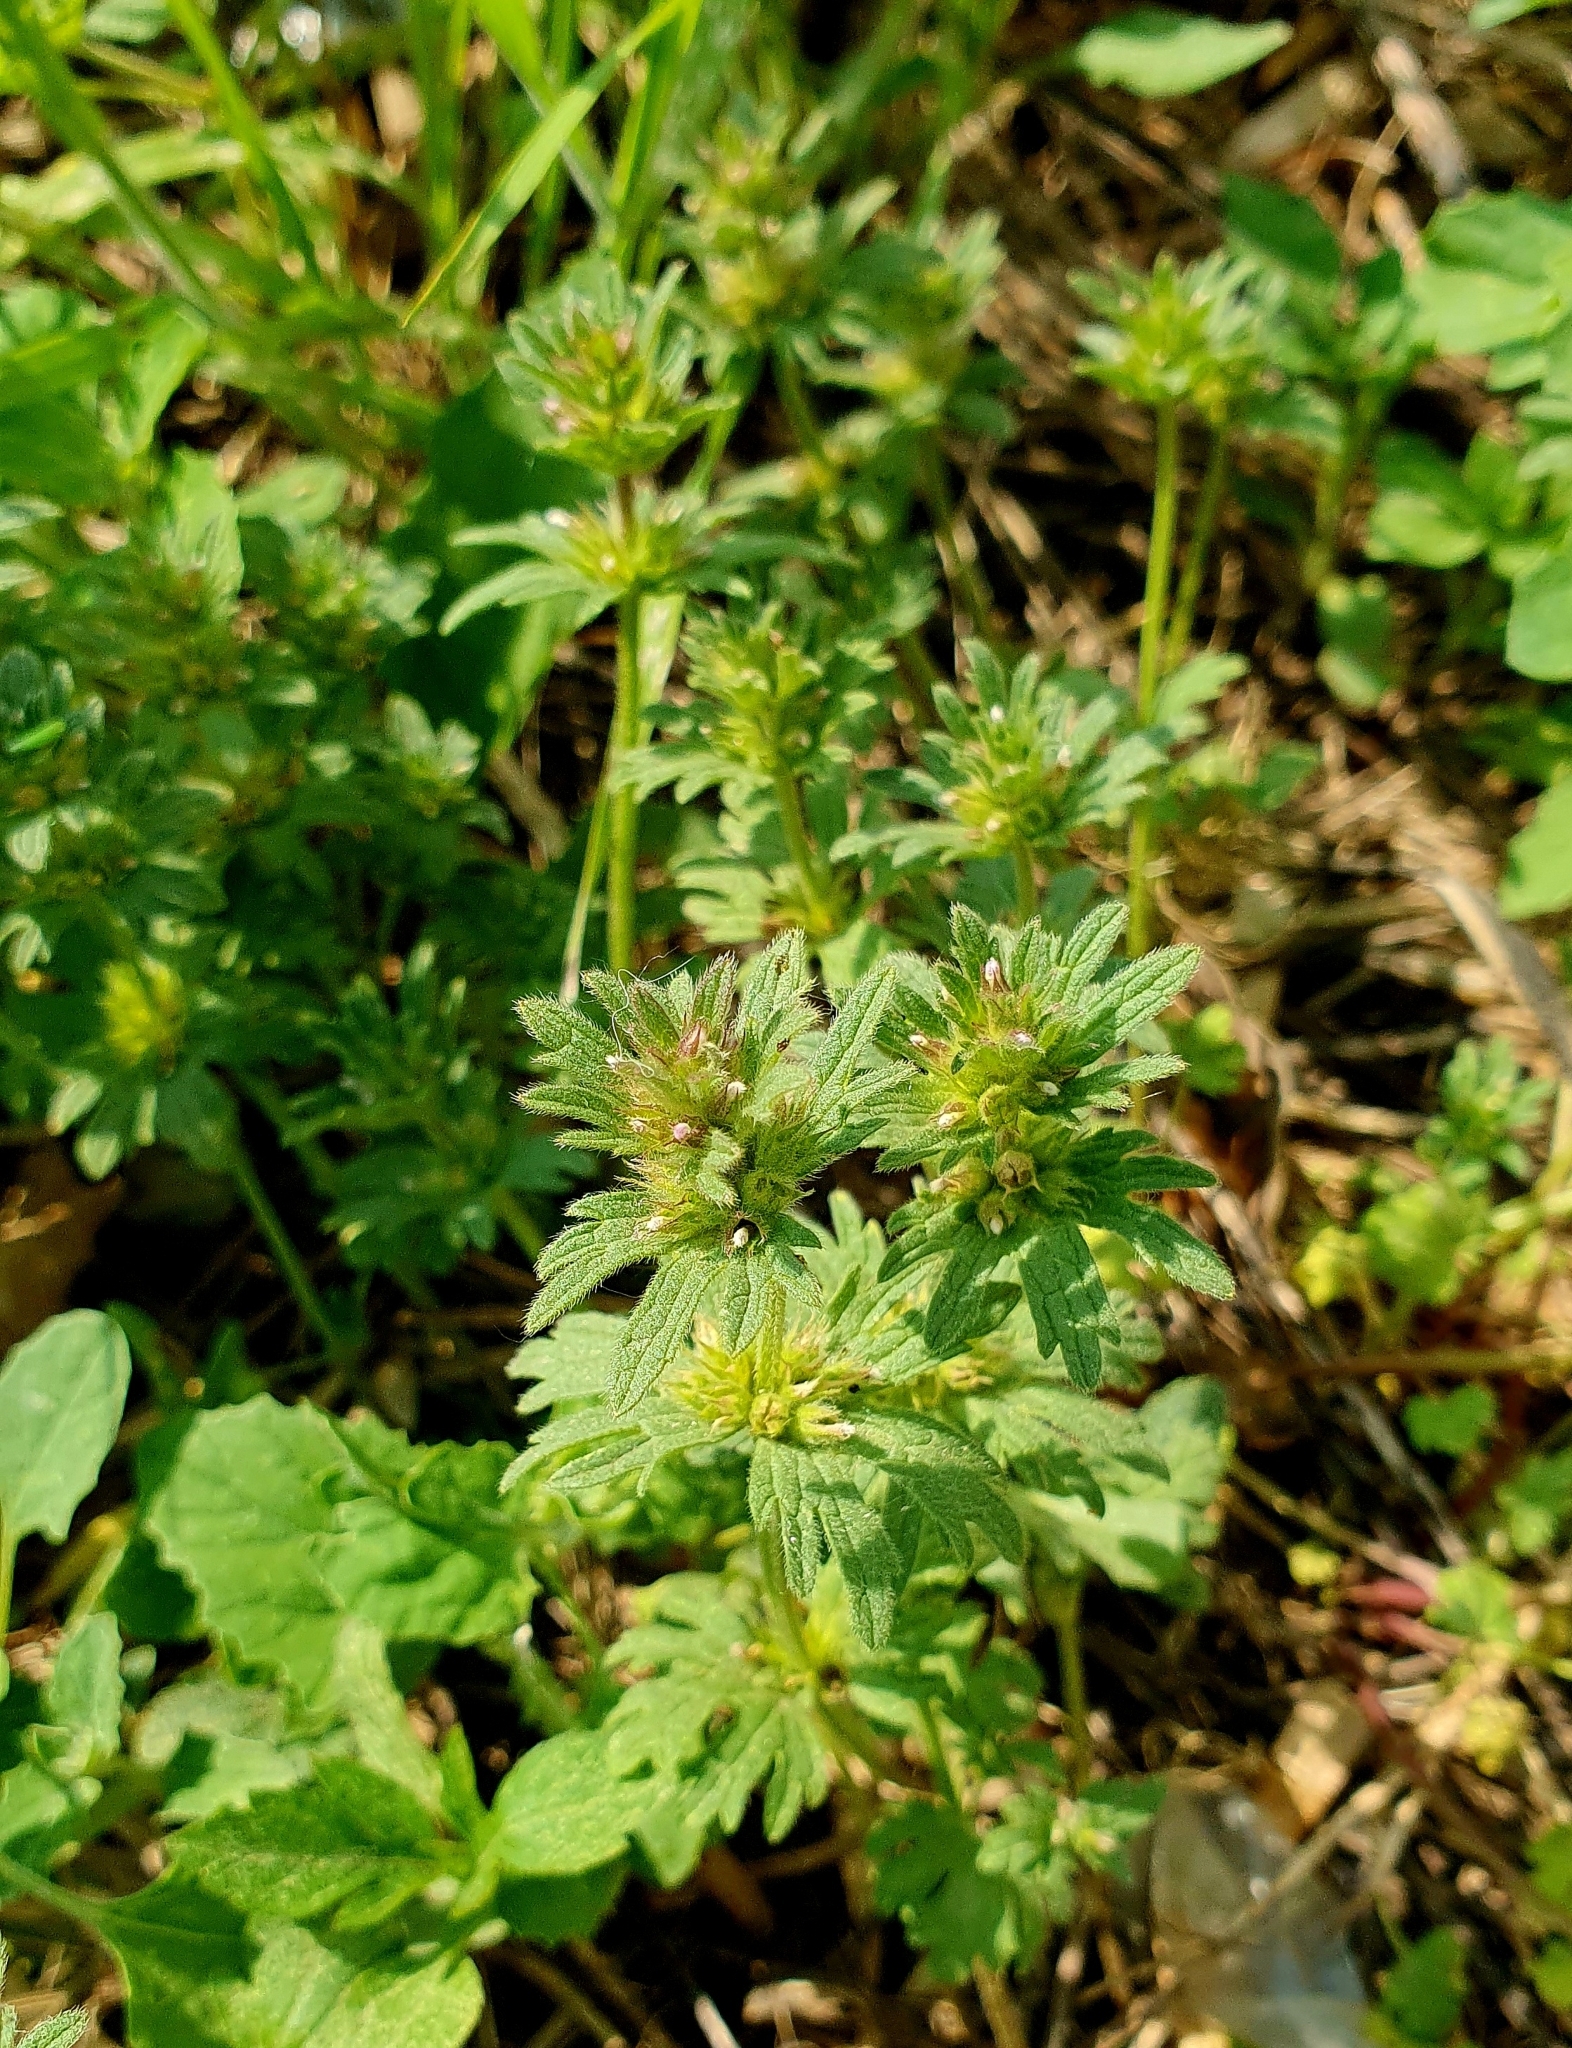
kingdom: Plantae
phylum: Tracheophyta
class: Magnoliopsida
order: Lamiales
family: Lamiaceae
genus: Lamium
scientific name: Lamium amplexicaule
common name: Henbit dead-nettle
